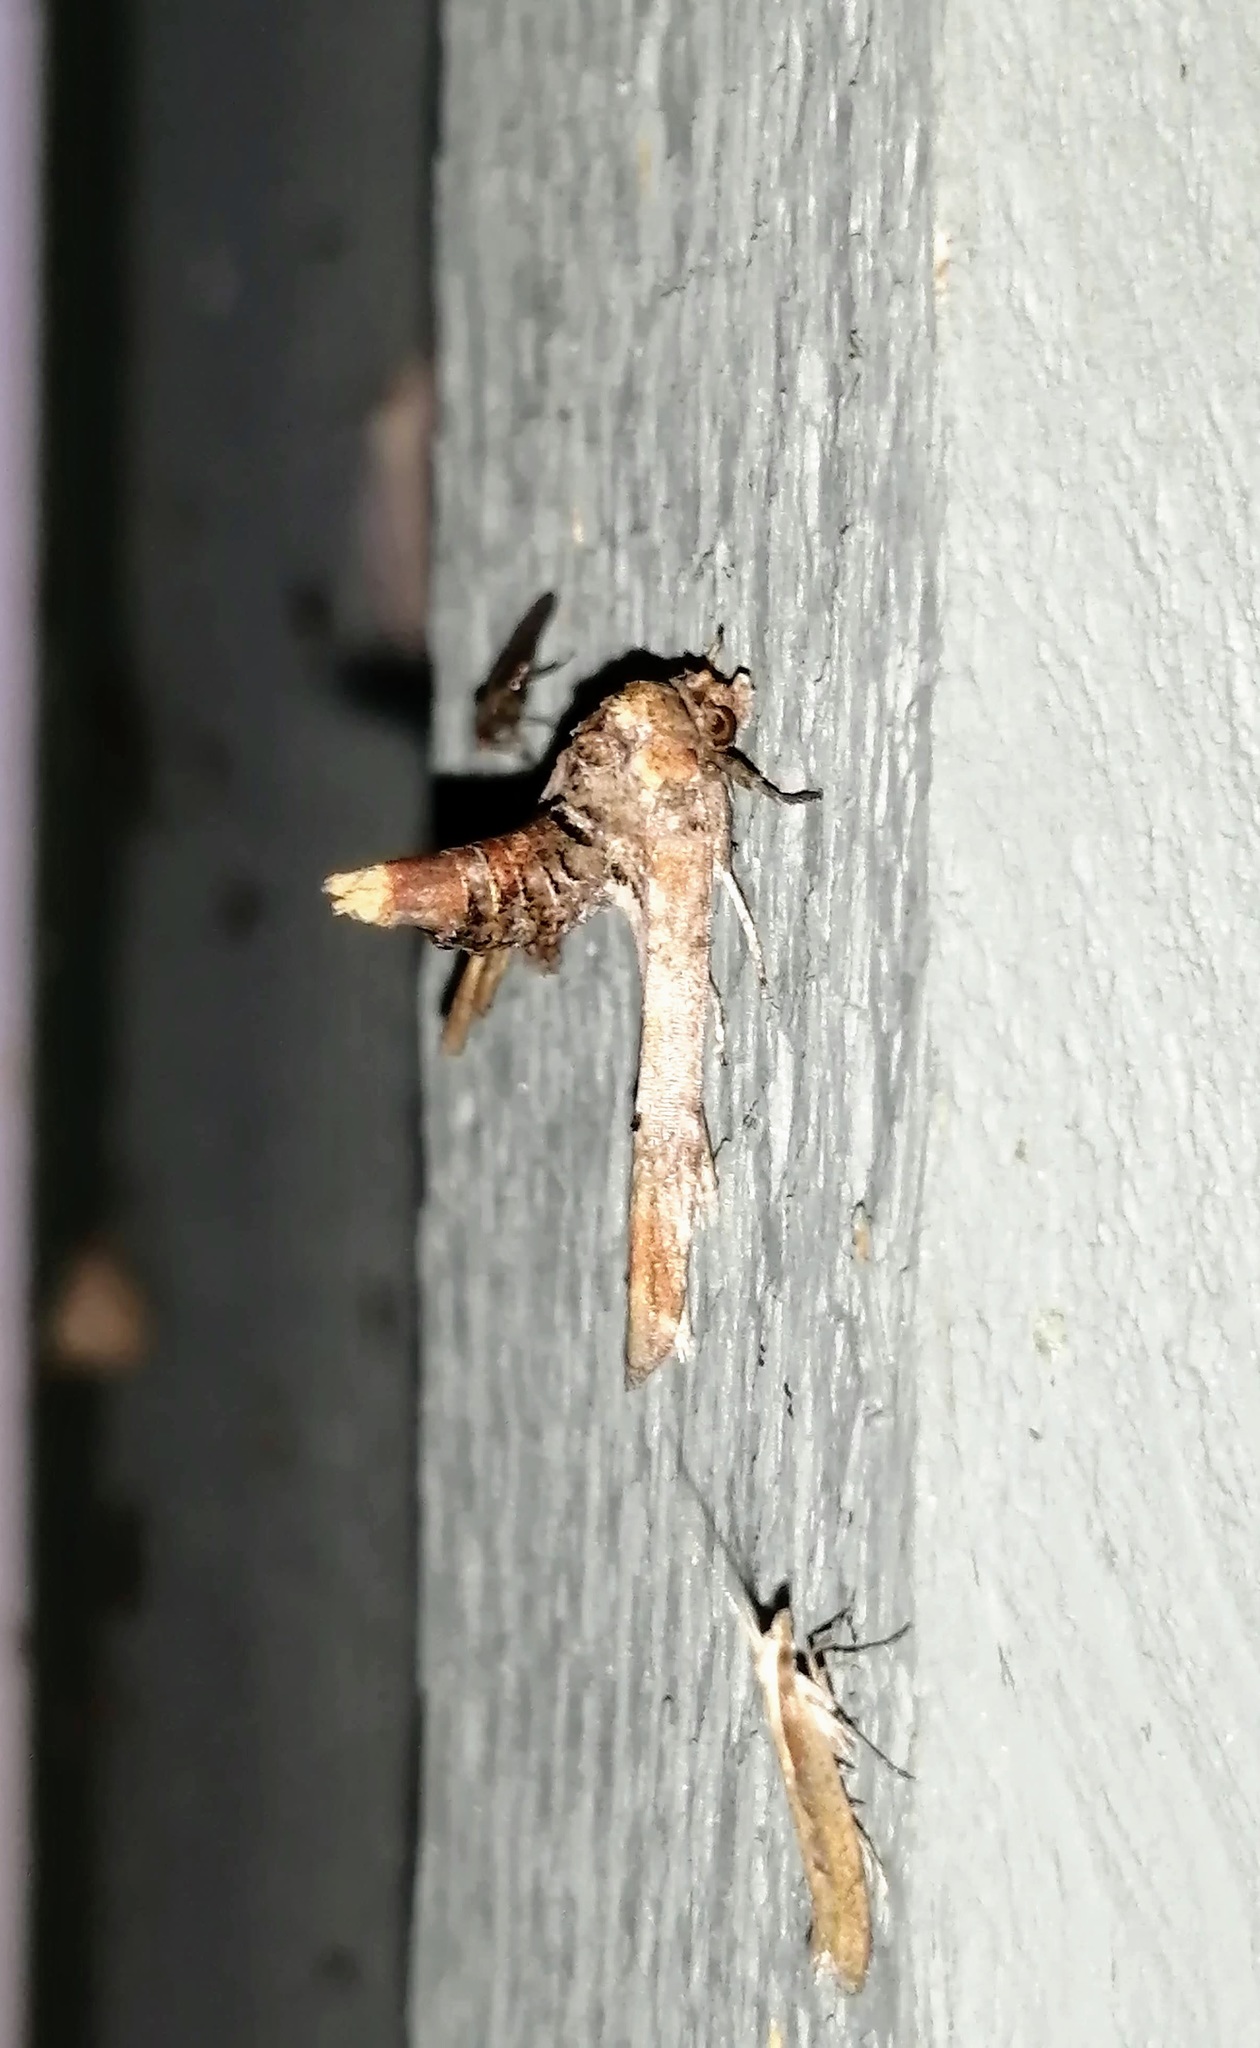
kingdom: Animalia
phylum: Arthropoda
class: Insecta
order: Lepidoptera
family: Euteliidae
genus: Marathyssa
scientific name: Marathyssa inficita
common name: Dark marathyssa moth
